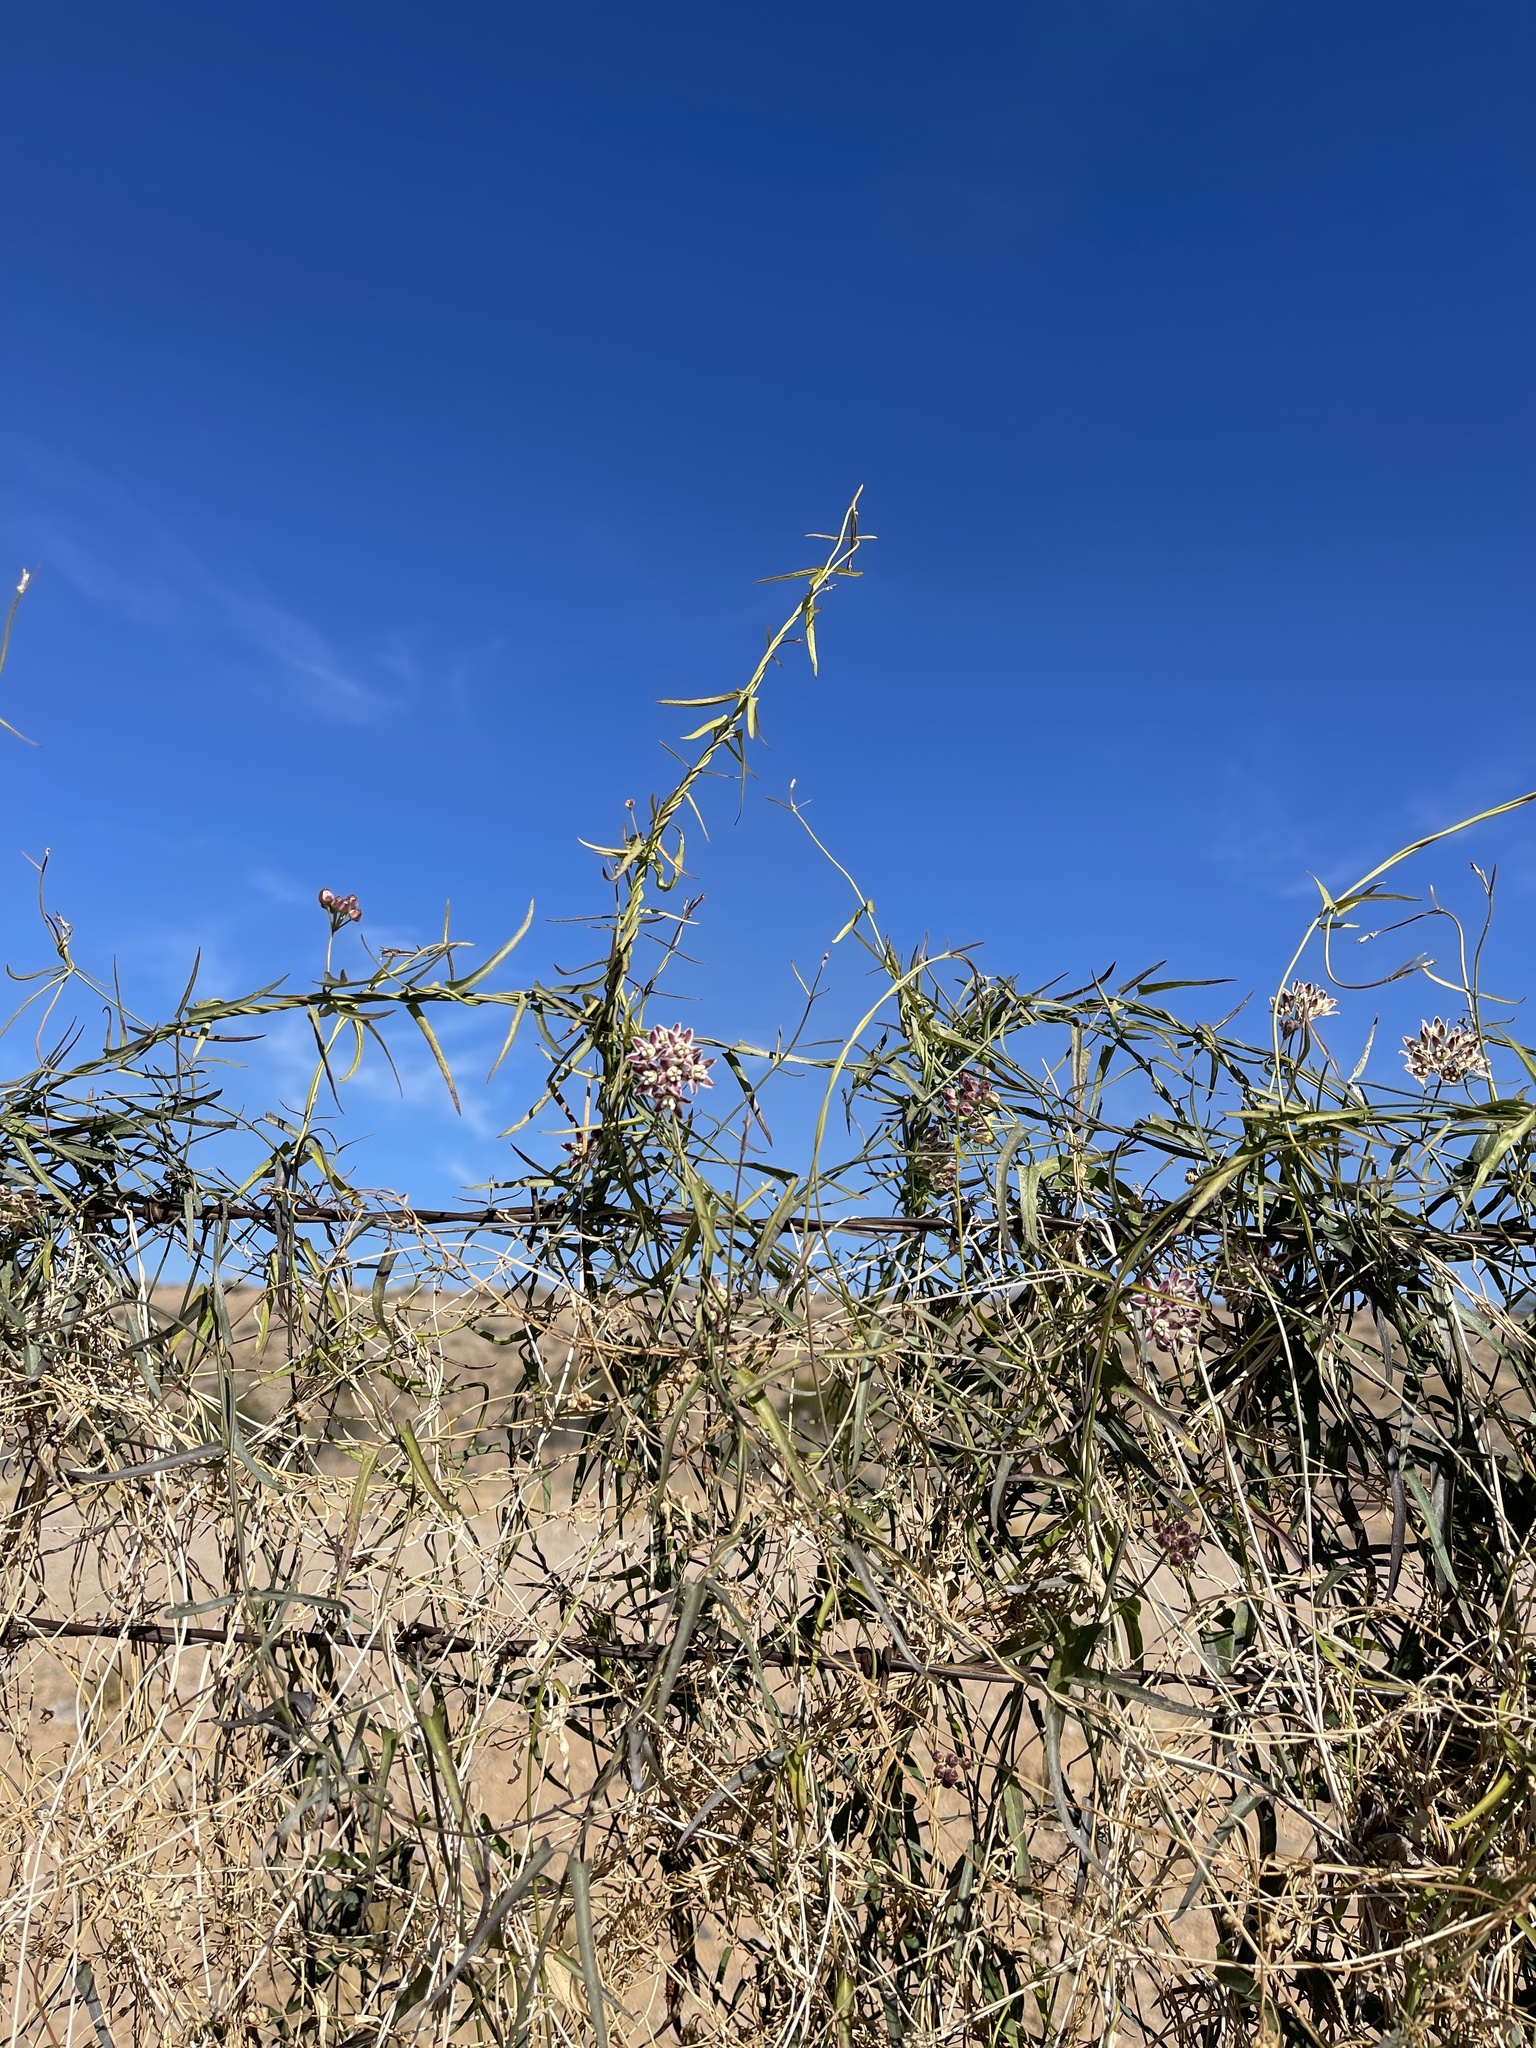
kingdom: Plantae
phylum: Tracheophyta
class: Magnoliopsida
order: Gentianales
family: Apocynaceae
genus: Funastrum
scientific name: Funastrum heterophyllum
